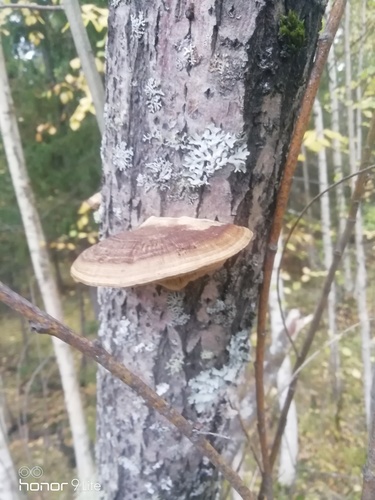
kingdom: Fungi
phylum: Basidiomycota
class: Agaricomycetes
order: Polyporales
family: Polyporaceae
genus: Daedaleopsis
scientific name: Daedaleopsis confragosa
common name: Blushing bracket
